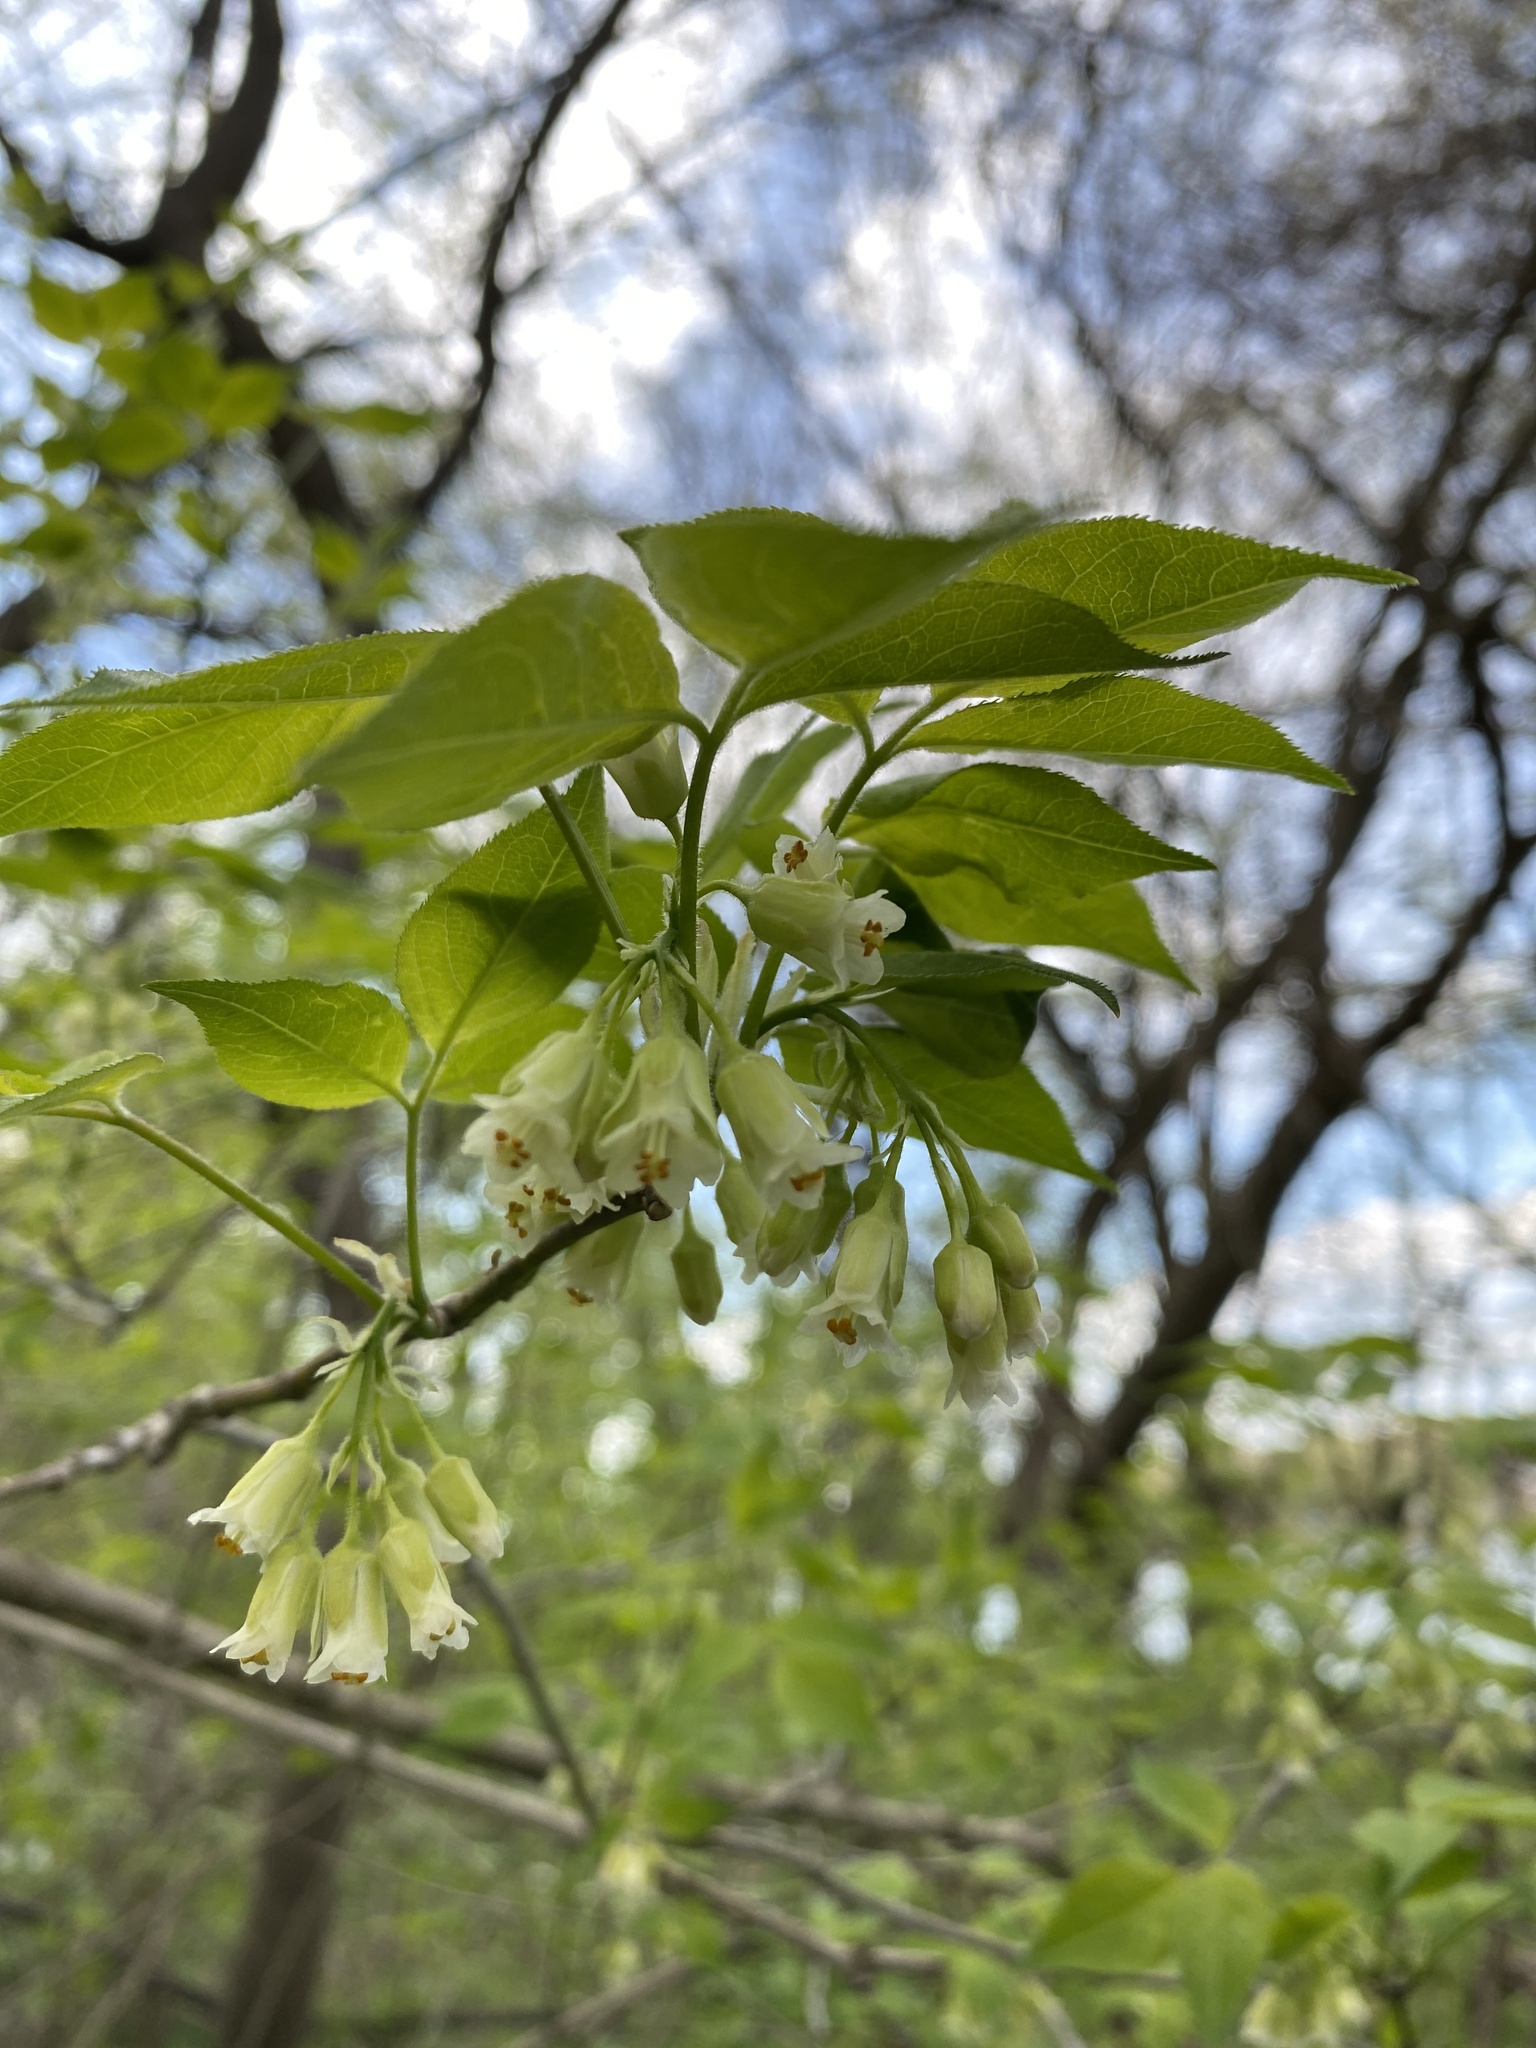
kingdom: Plantae
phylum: Tracheophyta
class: Magnoliopsida
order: Crossosomatales
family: Staphyleaceae
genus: Staphylea
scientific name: Staphylea trifolia
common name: American bladdernut
